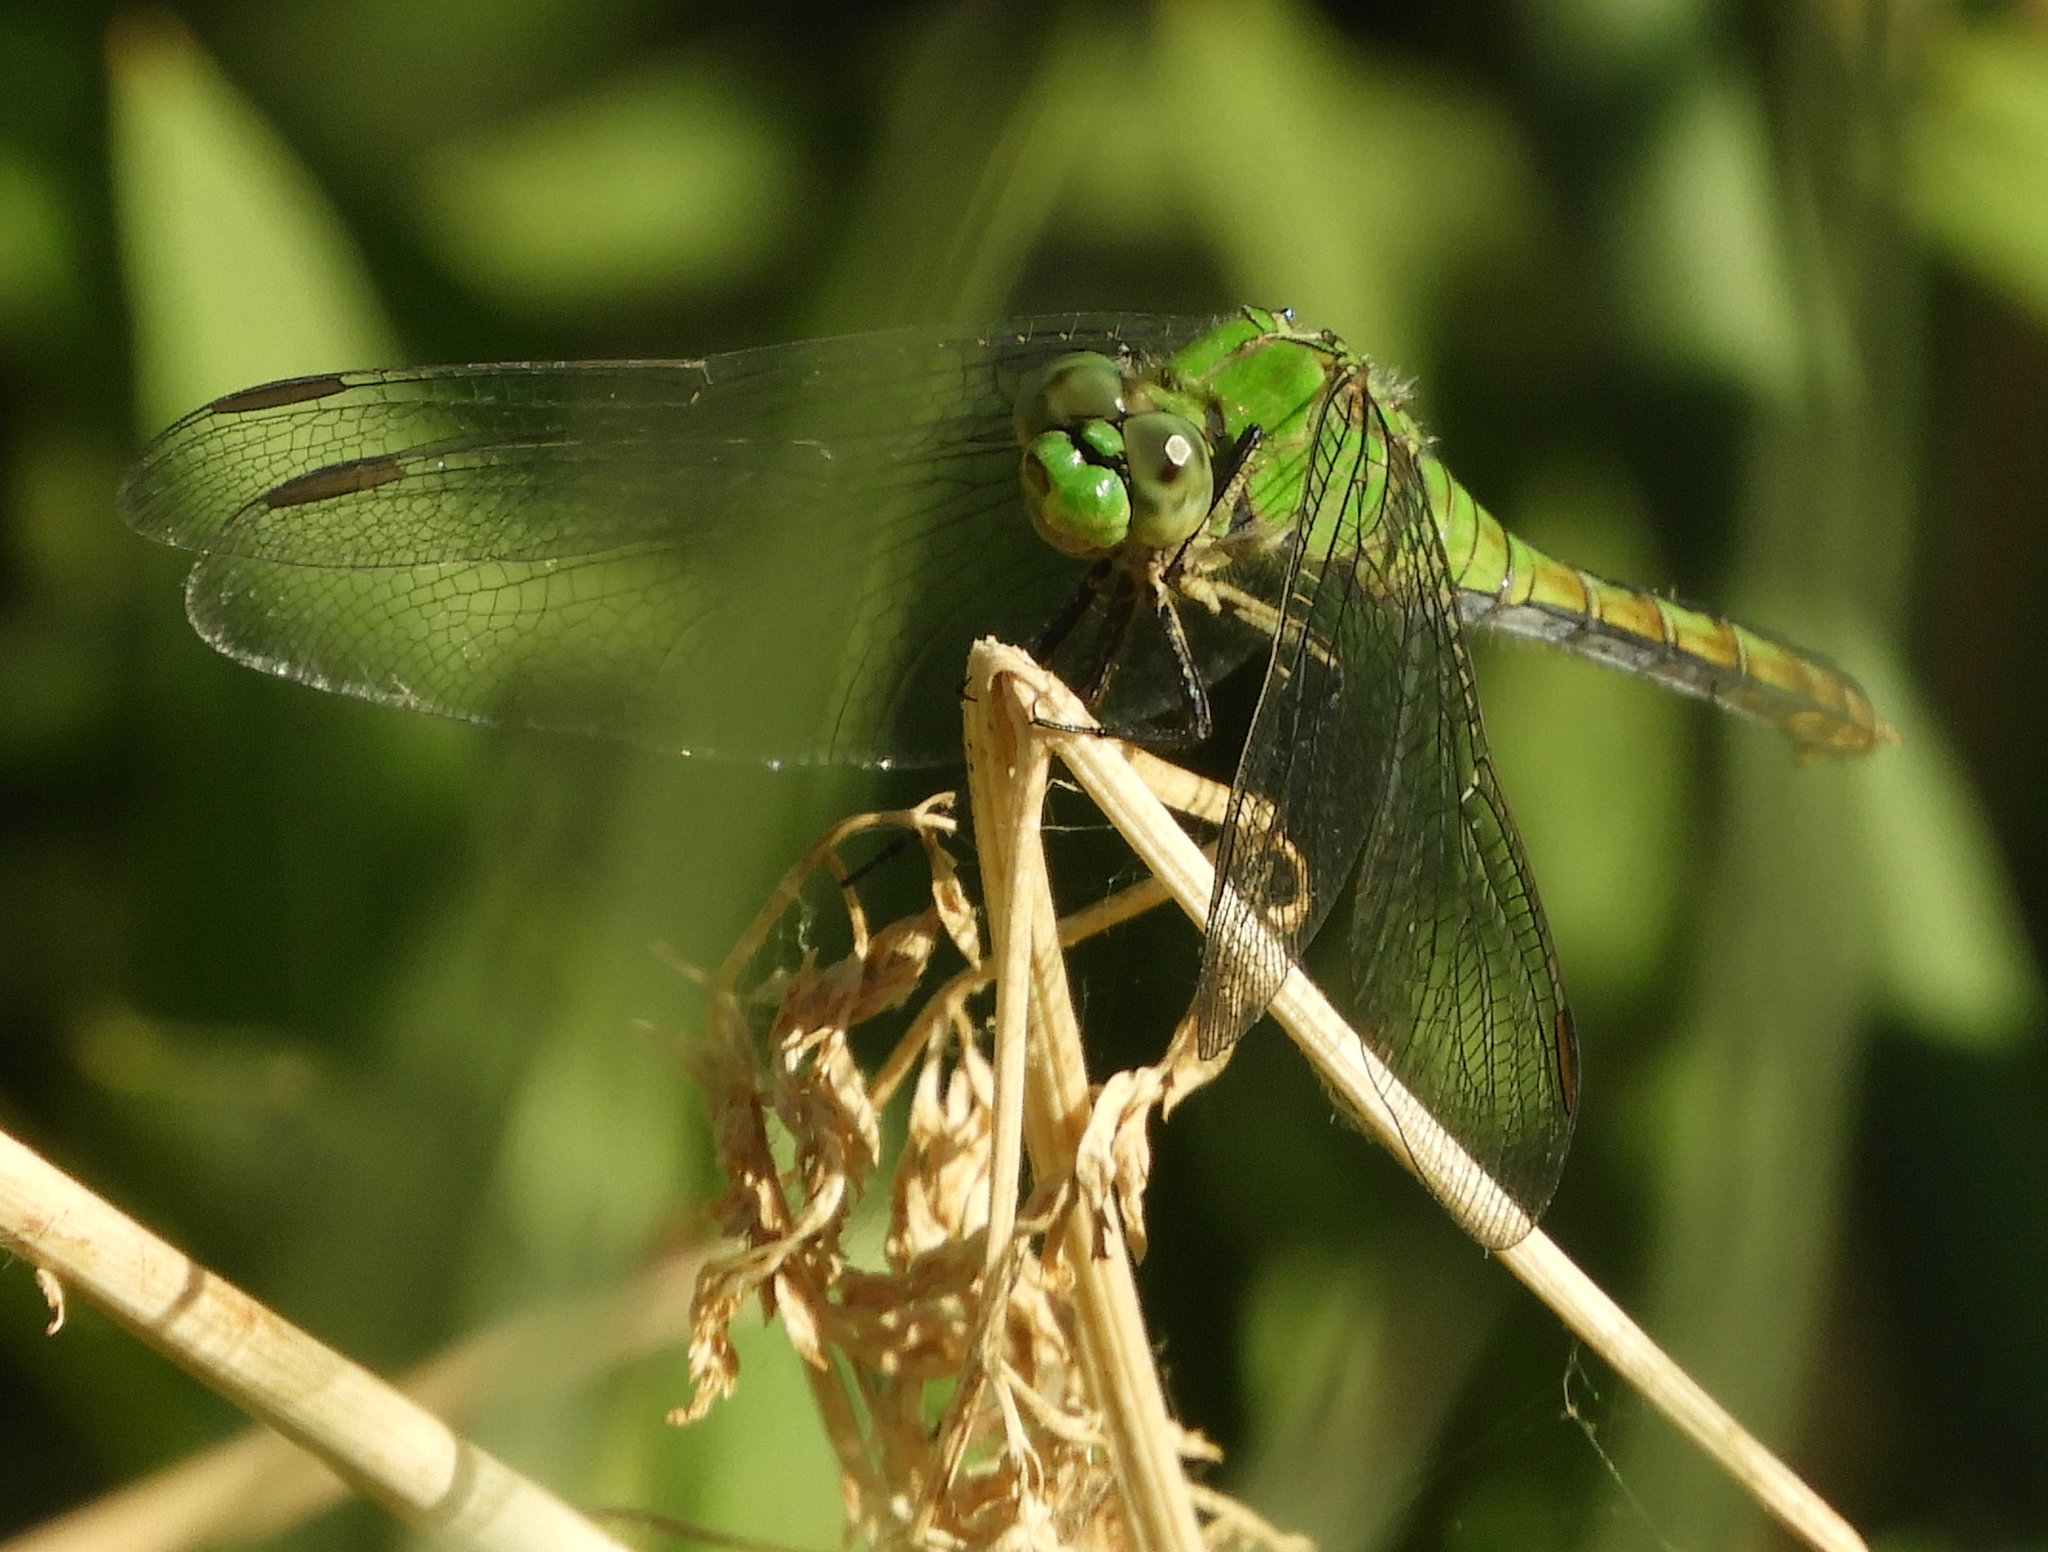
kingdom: Animalia
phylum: Arthropoda
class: Insecta
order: Odonata
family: Libellulidae
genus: Erythemis
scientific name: Erythemis collocata
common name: Western pondhawk
